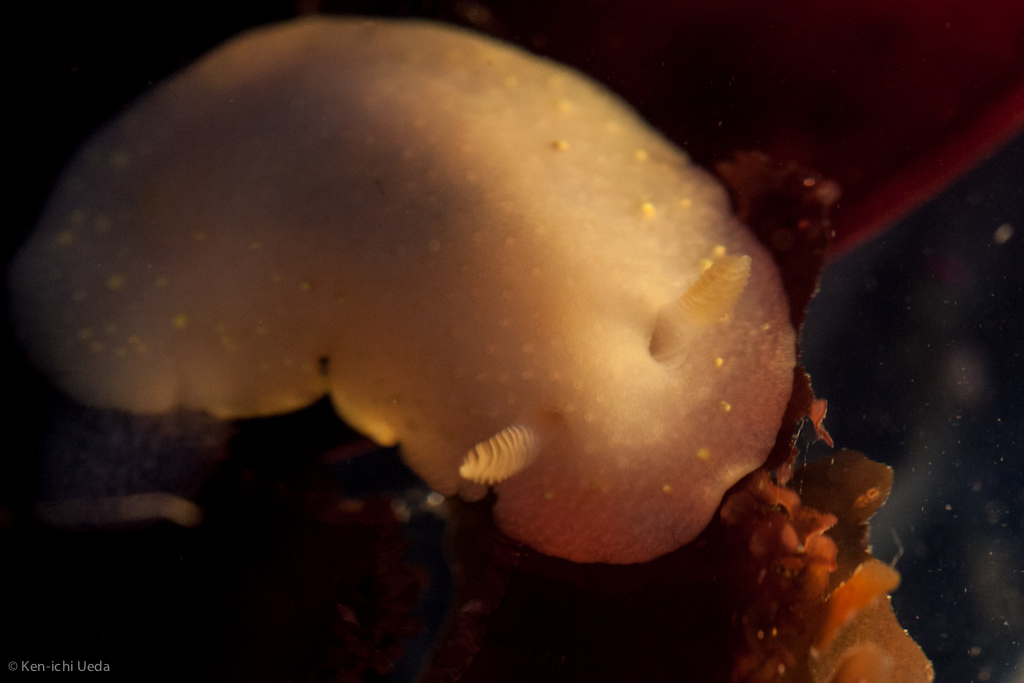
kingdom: Animalia
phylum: Mollusca
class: Gastropoda
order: Nudibranchia
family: Cadlinidae
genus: Cadlina
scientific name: Cadlina modesta
